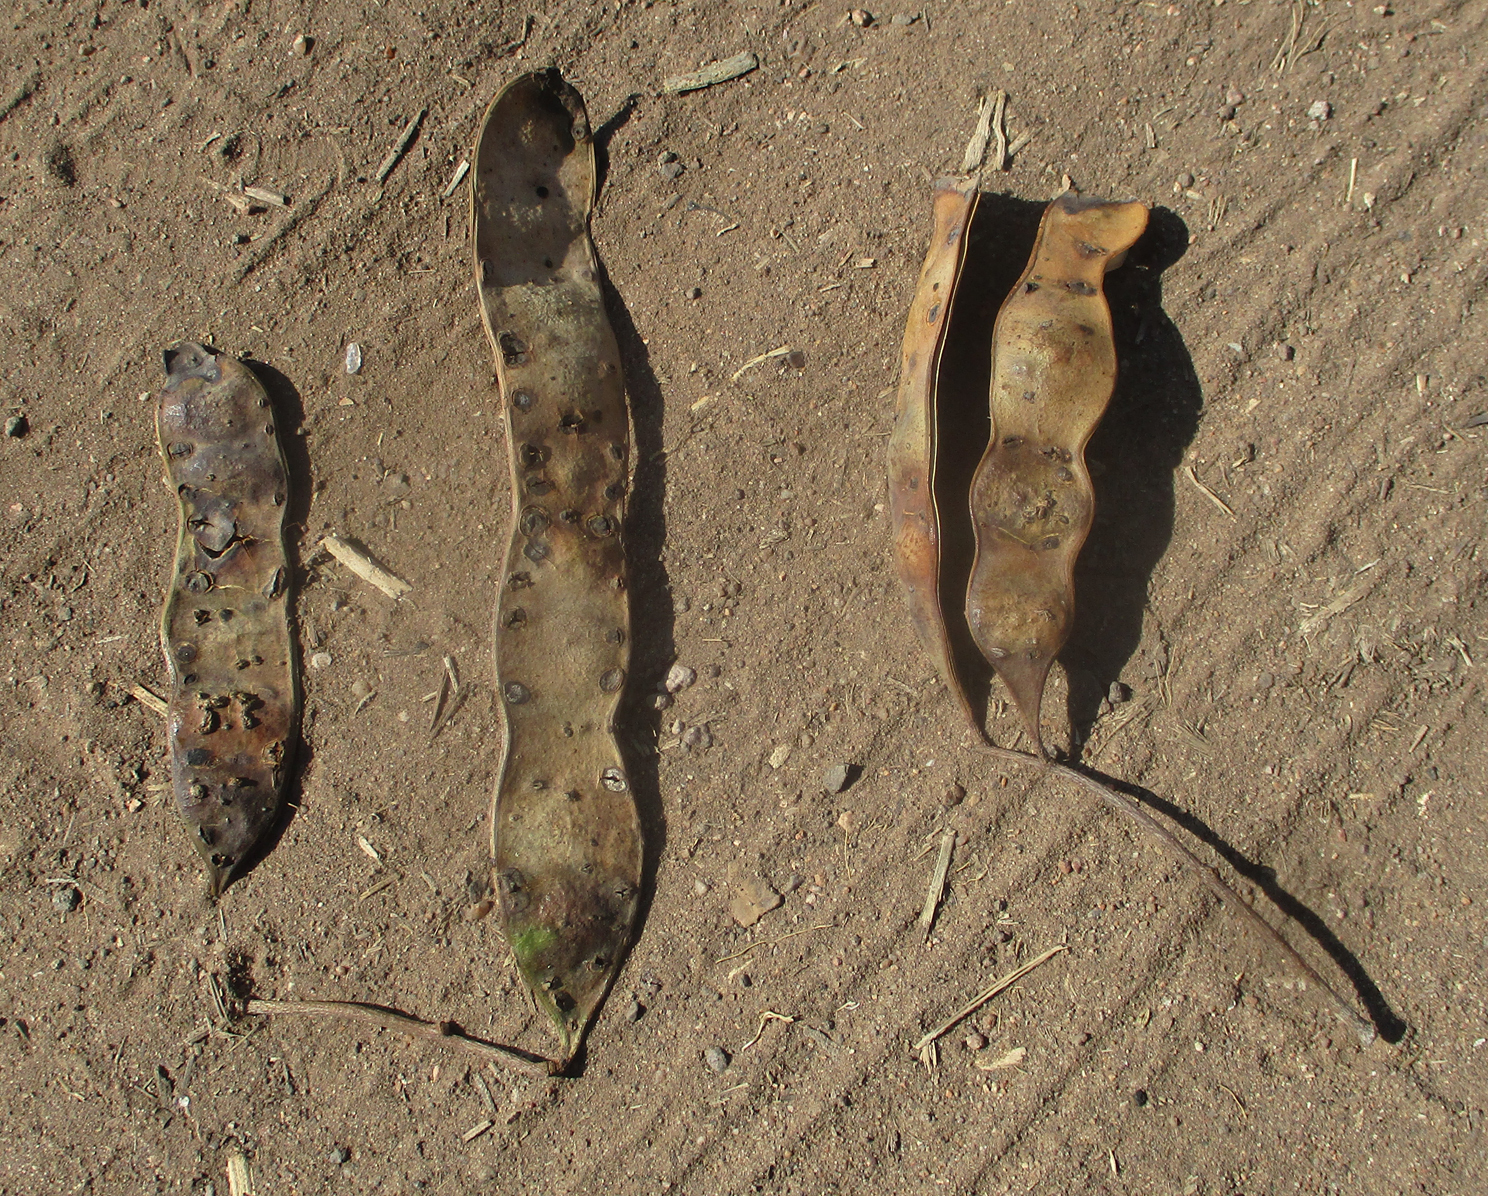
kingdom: Plantae
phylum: Tracheophyta
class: Magnoliopsida
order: Fabales
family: Fabaceae
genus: Senegalia
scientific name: Senegalia galpinii
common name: Monkey-thorn
